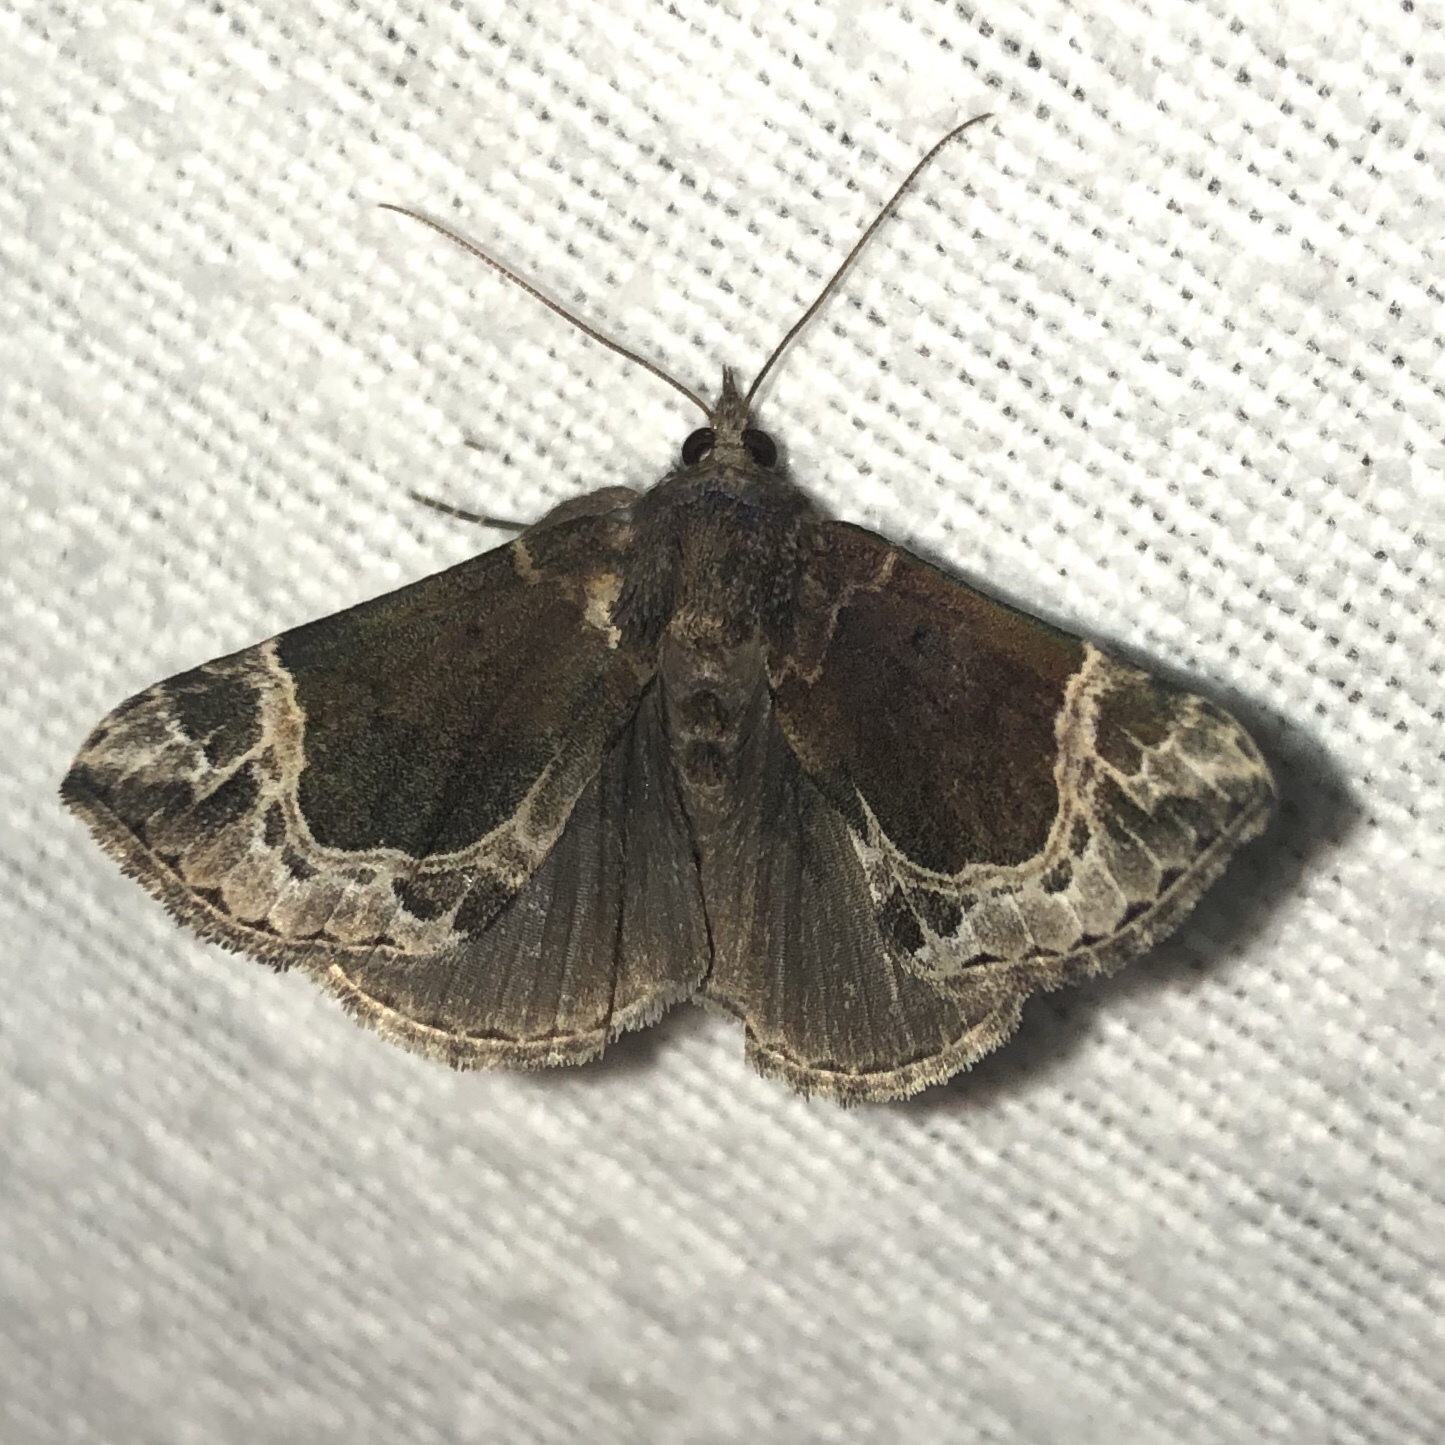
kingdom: Animalia
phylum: Arthropoda
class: Insecta
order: Lepidoptera
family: Erebidae
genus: Hypena
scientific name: Hypena abalienalis
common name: White-lined snout
